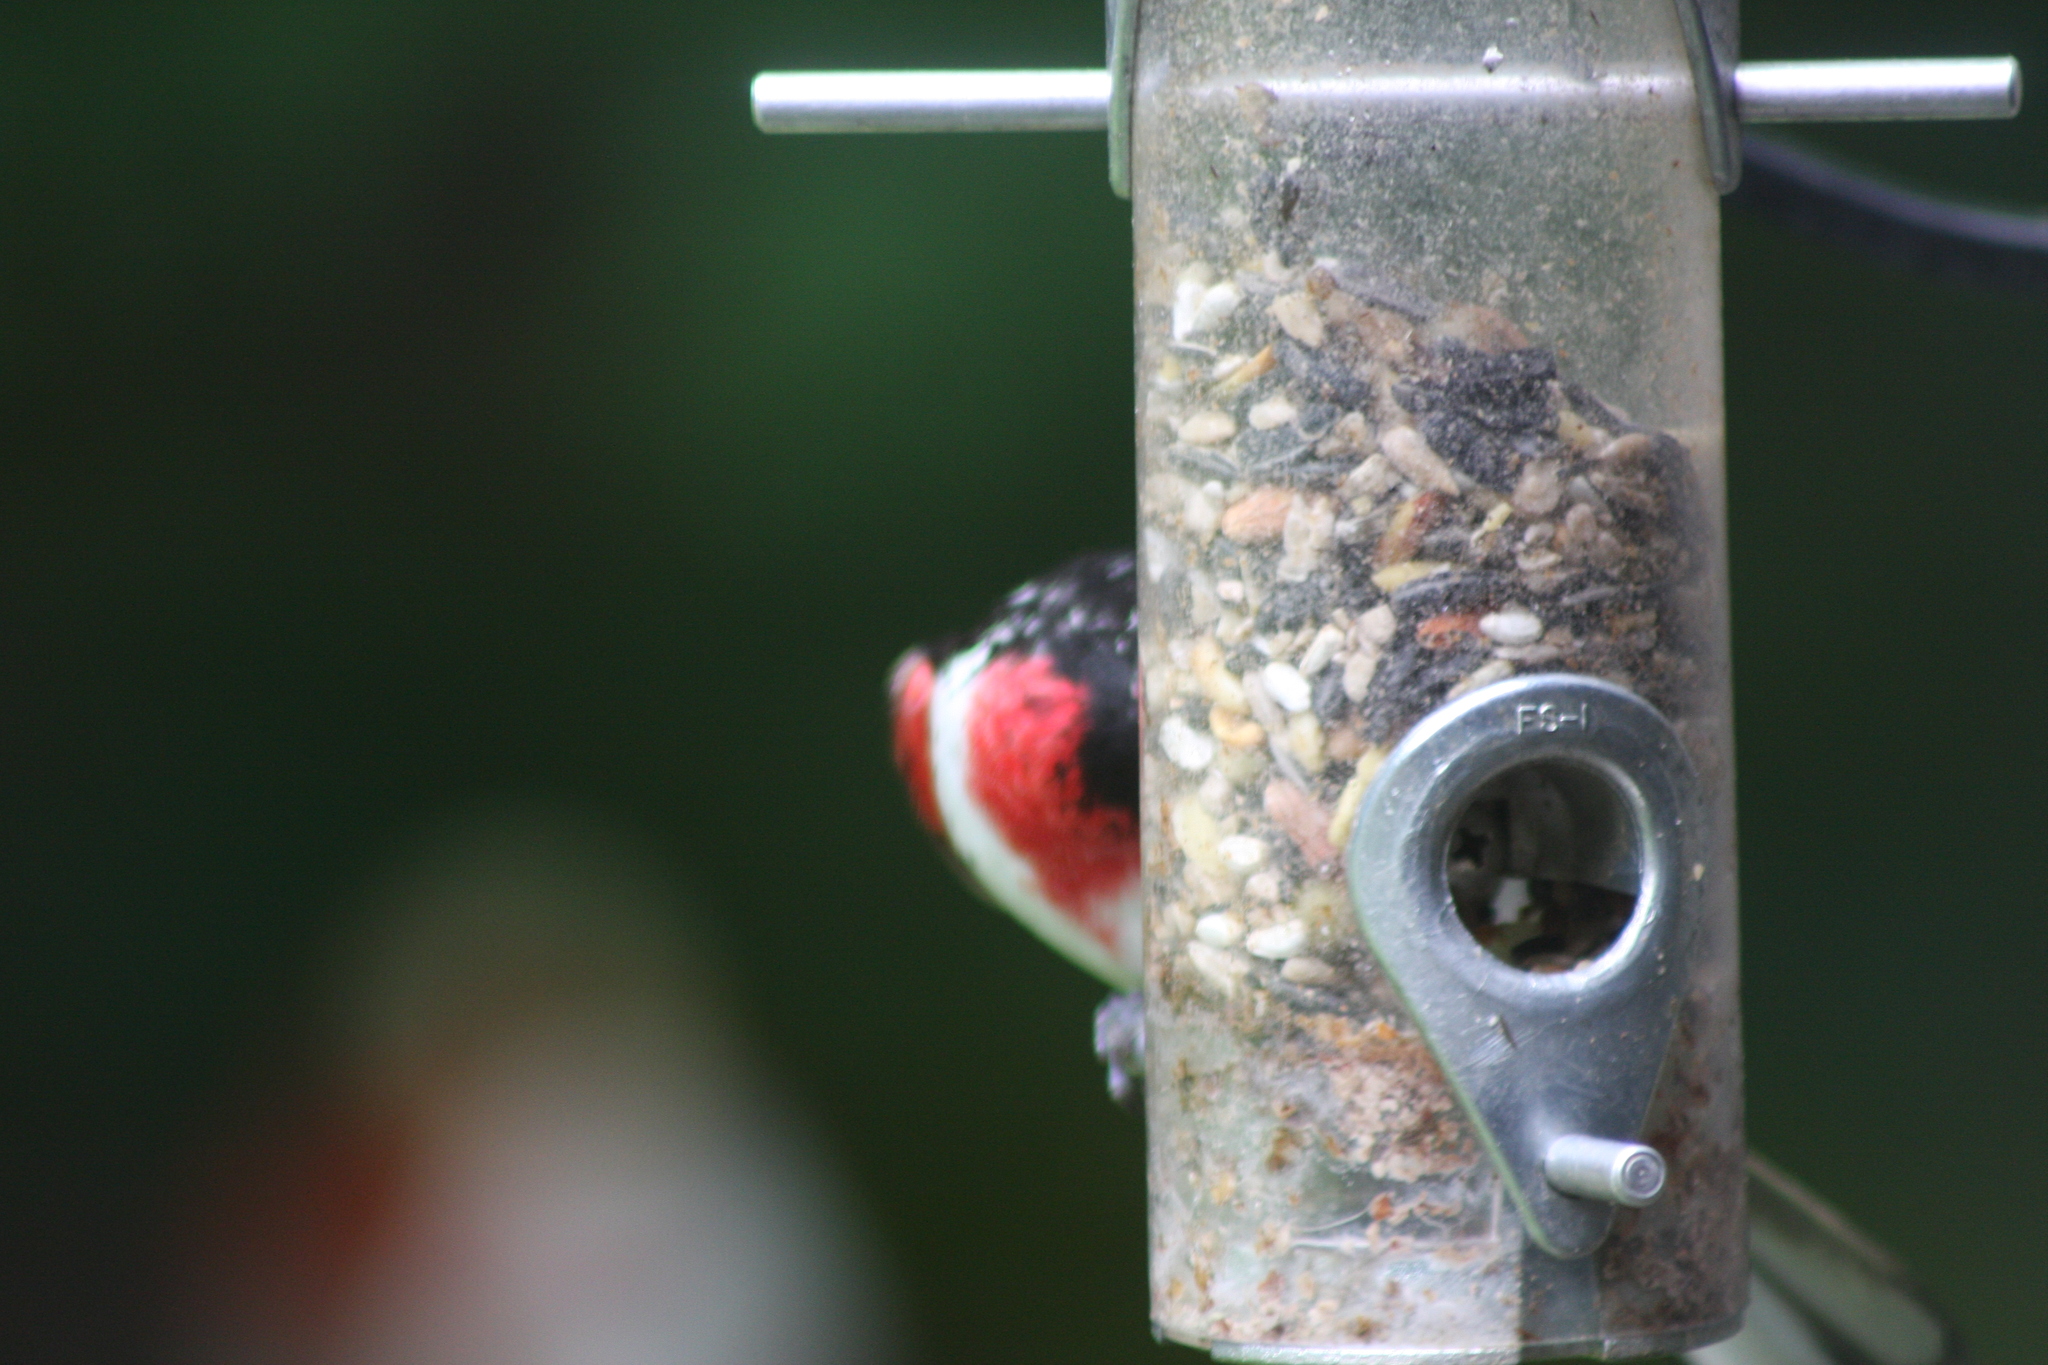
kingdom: Animalia
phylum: Chordata
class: Aves
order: Passeriformes
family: Cardinalidae
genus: Pheucticus
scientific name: Pheucticus ludovicianus
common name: Rose-breasted grosbeak
